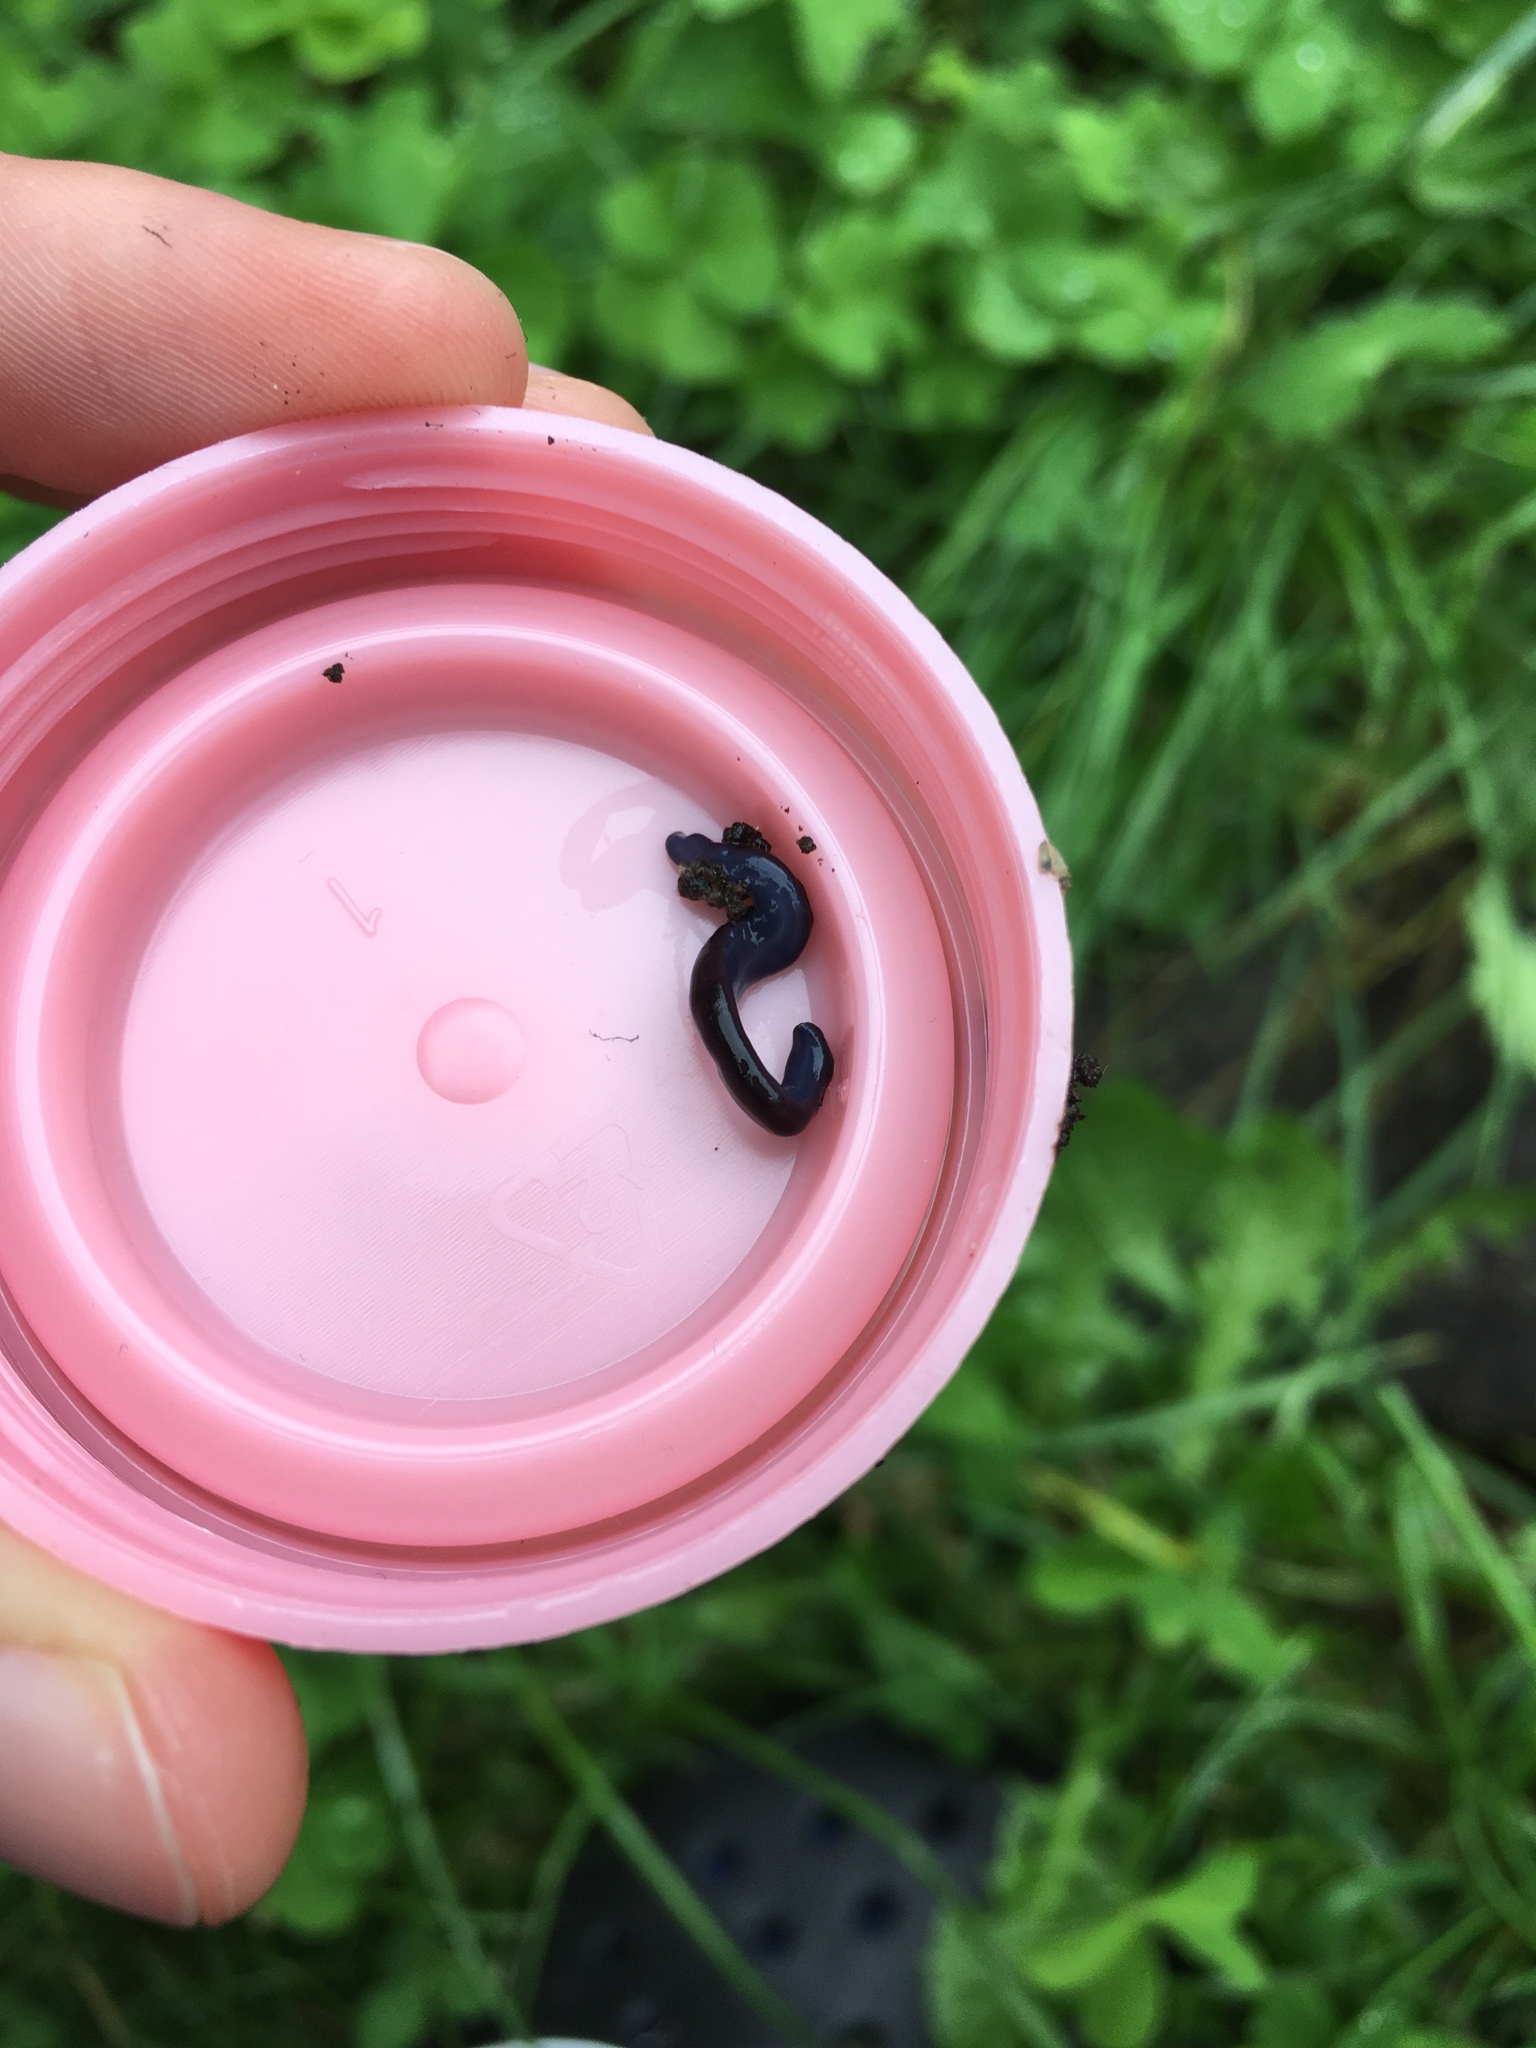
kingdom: Animalia
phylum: Platyhelminthes
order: Tricladida
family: Geoplanidae
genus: Caenoplana
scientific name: Caenoplana coerulea
